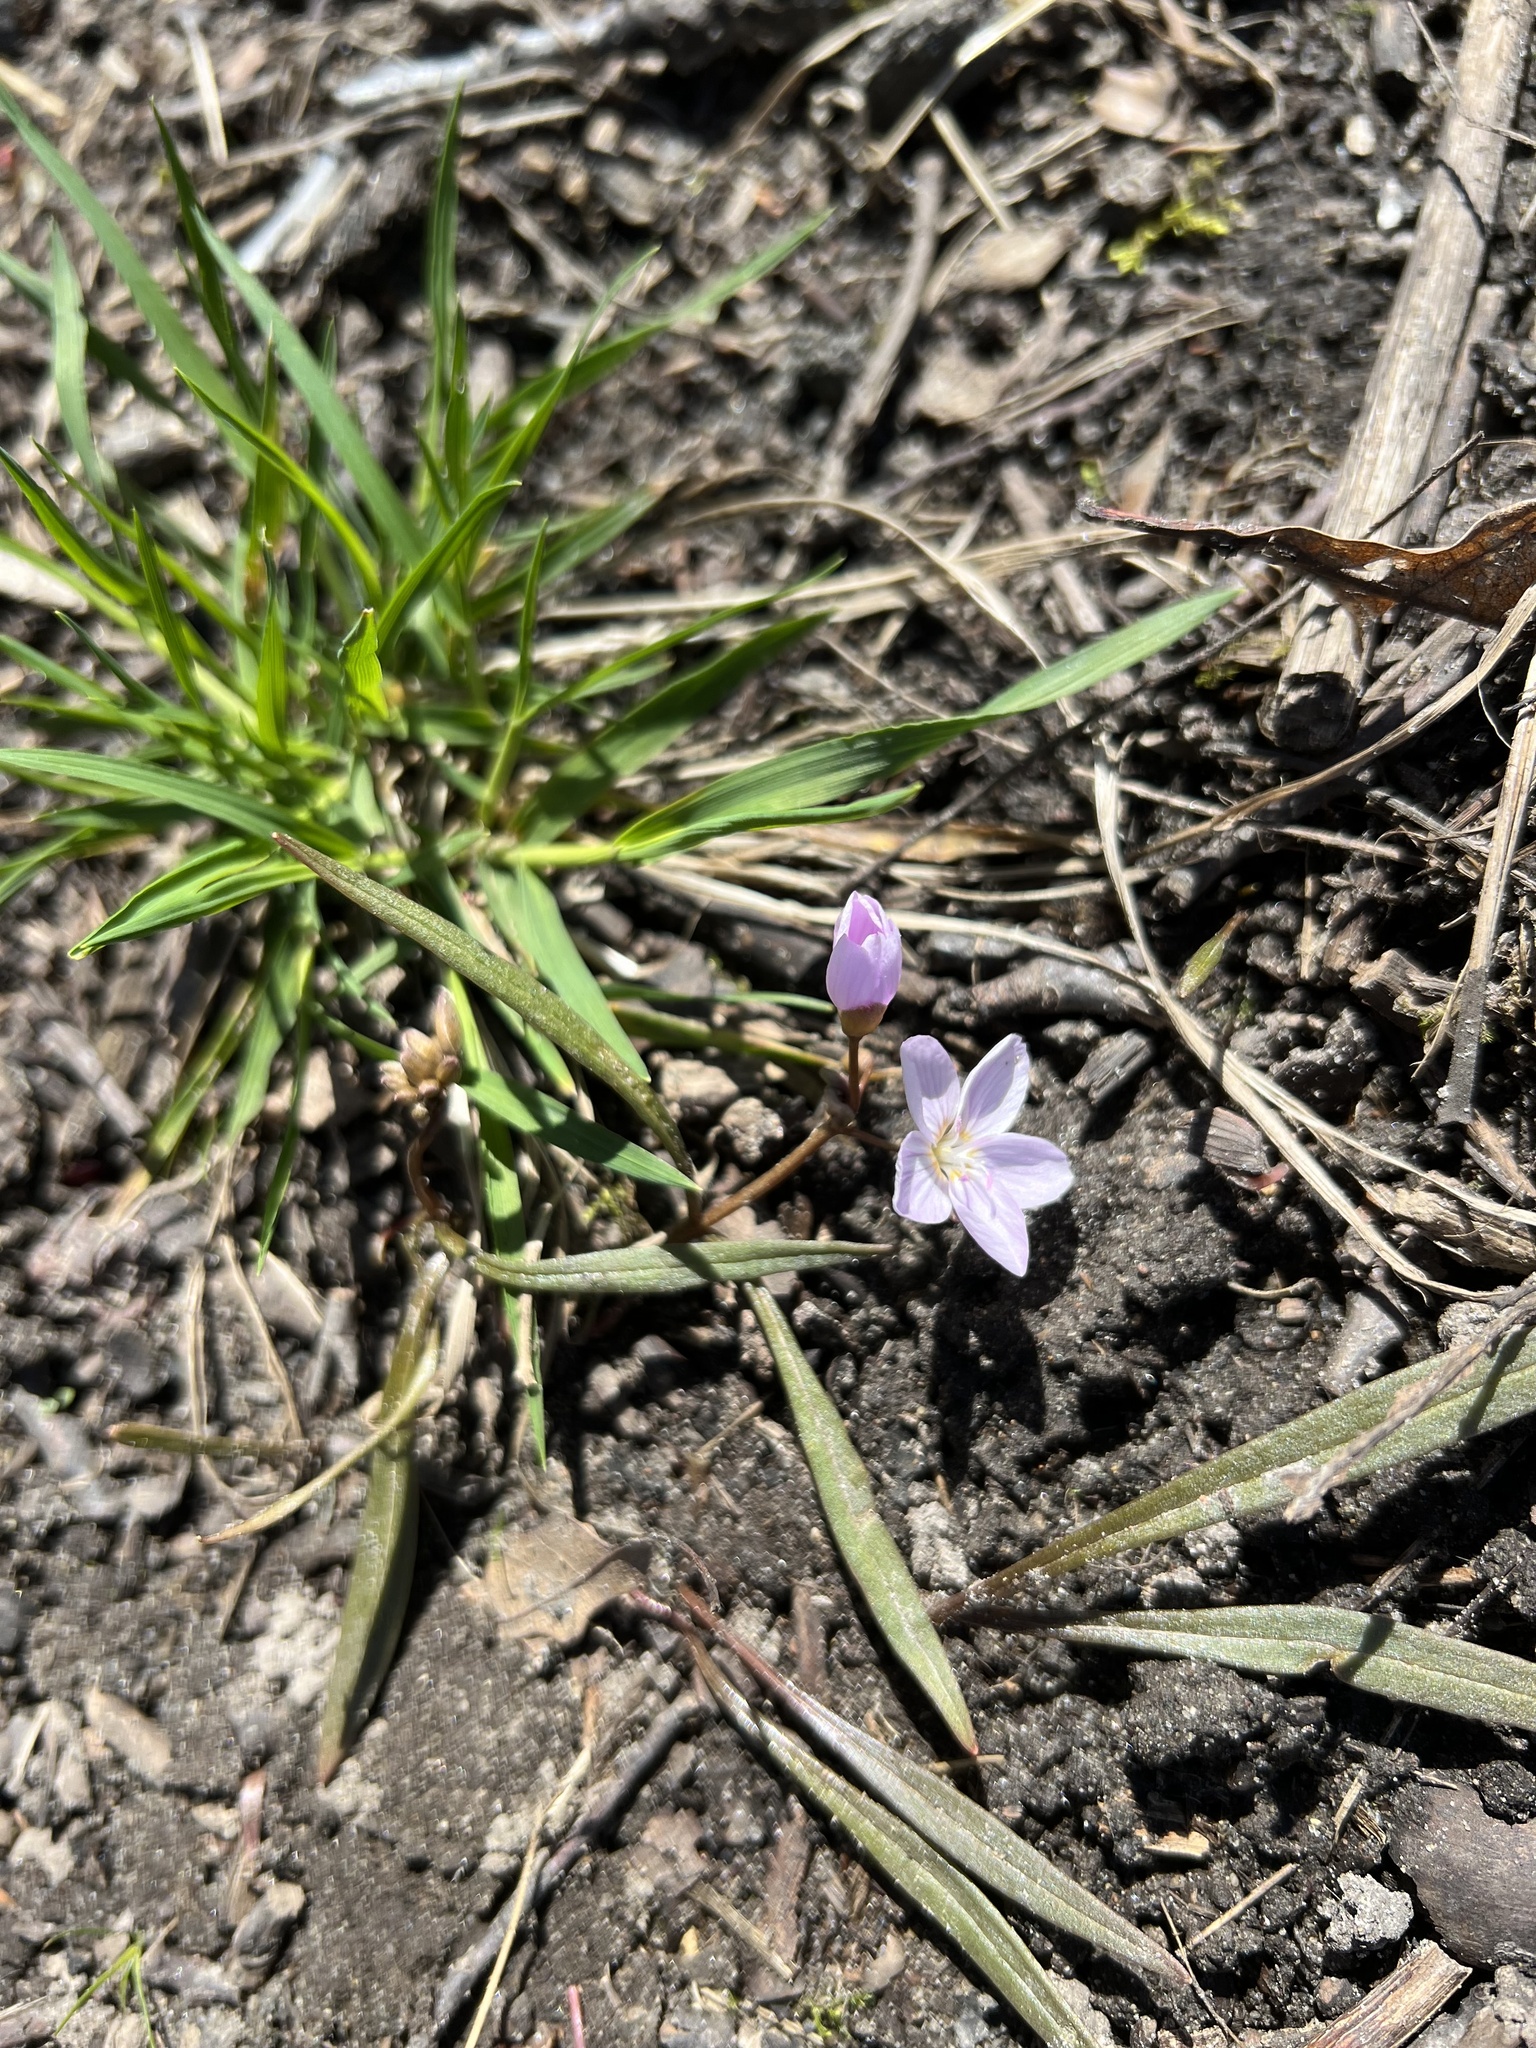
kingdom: Plantae
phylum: Tracheophyta
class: Magnoliopsida
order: Caryophyllales
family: Montiaceae
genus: Claytonia
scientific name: Claytonia virginica
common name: Virginia springbeauty
